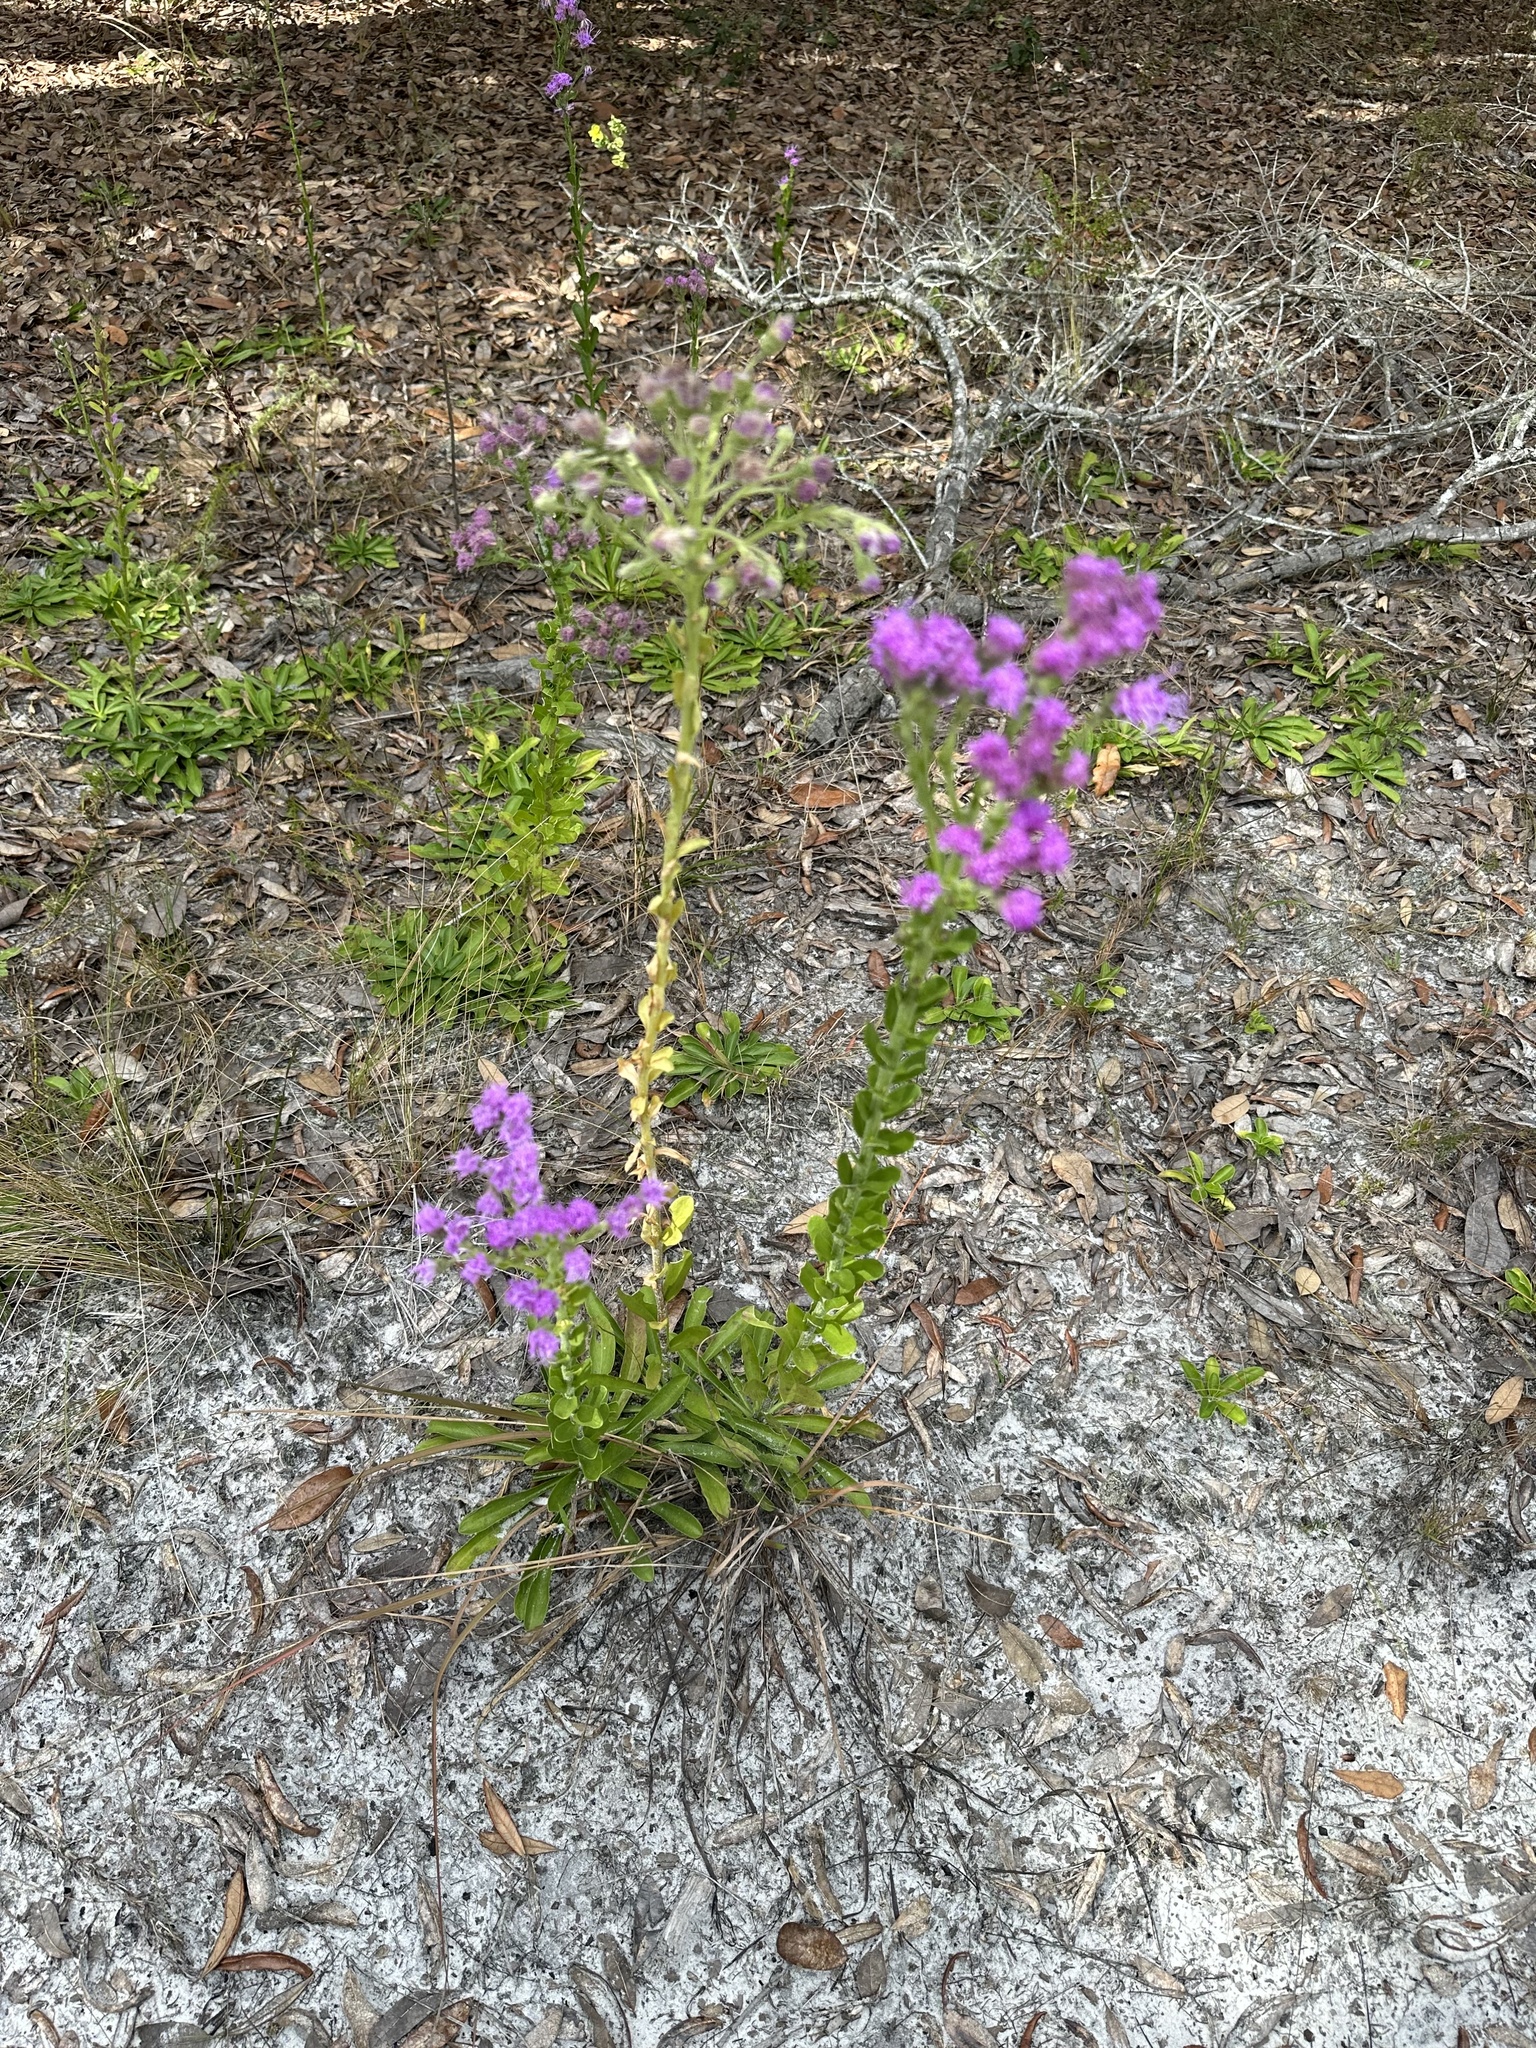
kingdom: Plantae
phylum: Tracheophyta
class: Magnoliopsida
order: Asterales
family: Asteraceae
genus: Carphephorus
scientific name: Carphephorus corymbosus
